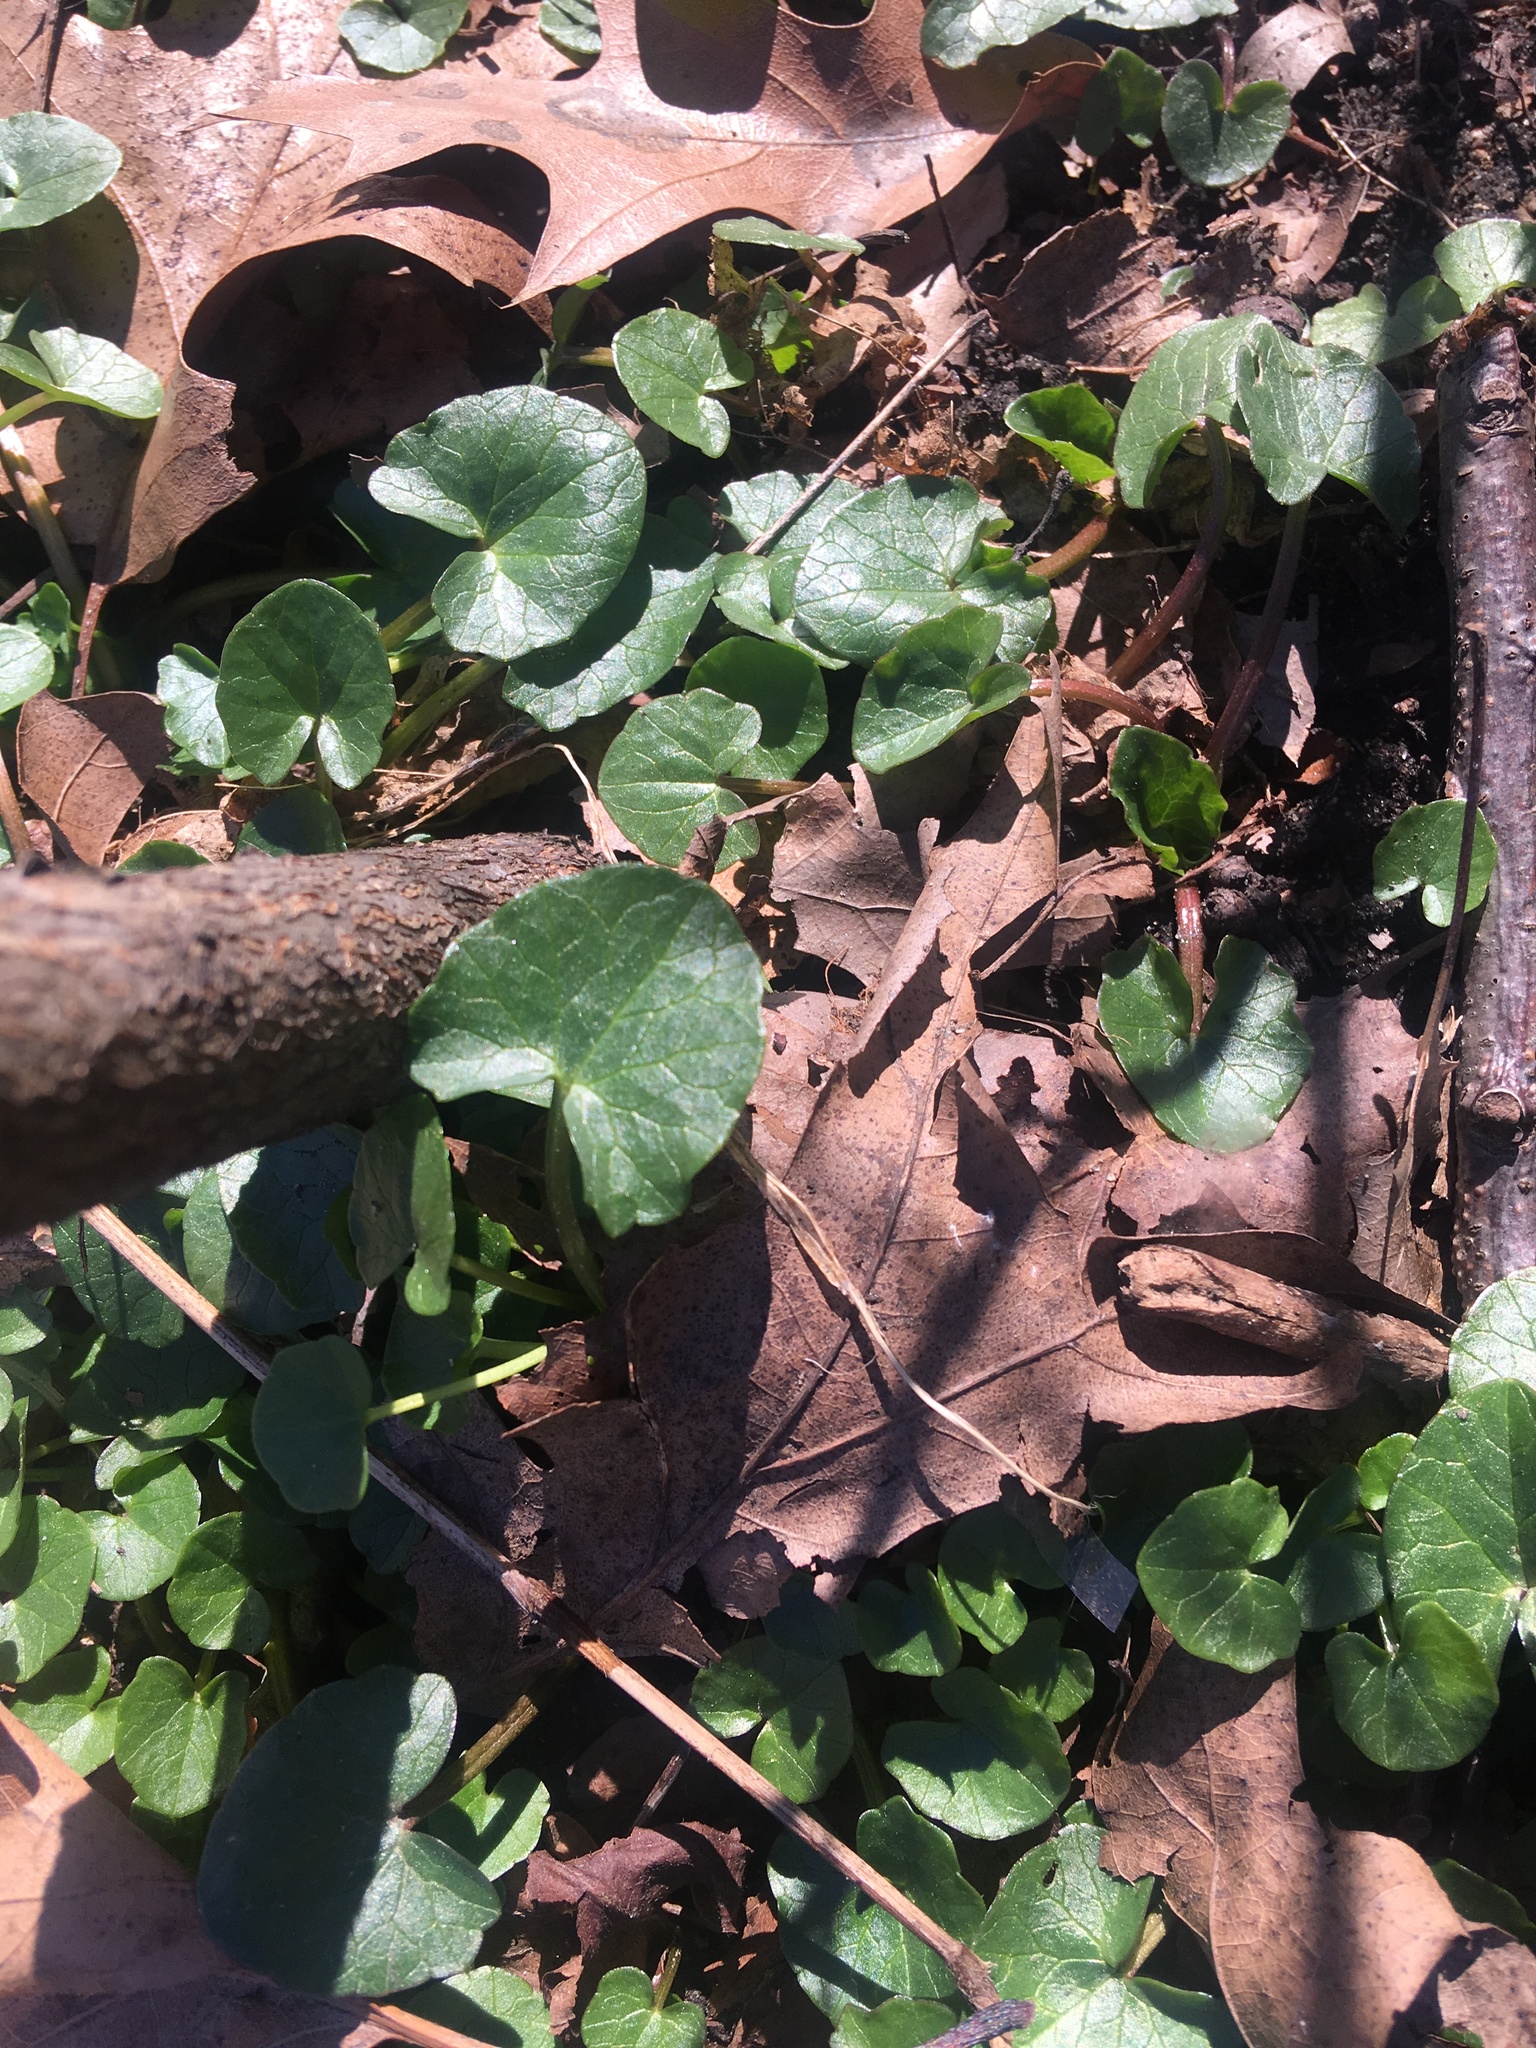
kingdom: Plantae
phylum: Tracheophyta
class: Magnoliopsida
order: Ranunculales
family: Ranunculaceae
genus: Ficaria
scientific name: Ficaria verna
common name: Lesser celandine
